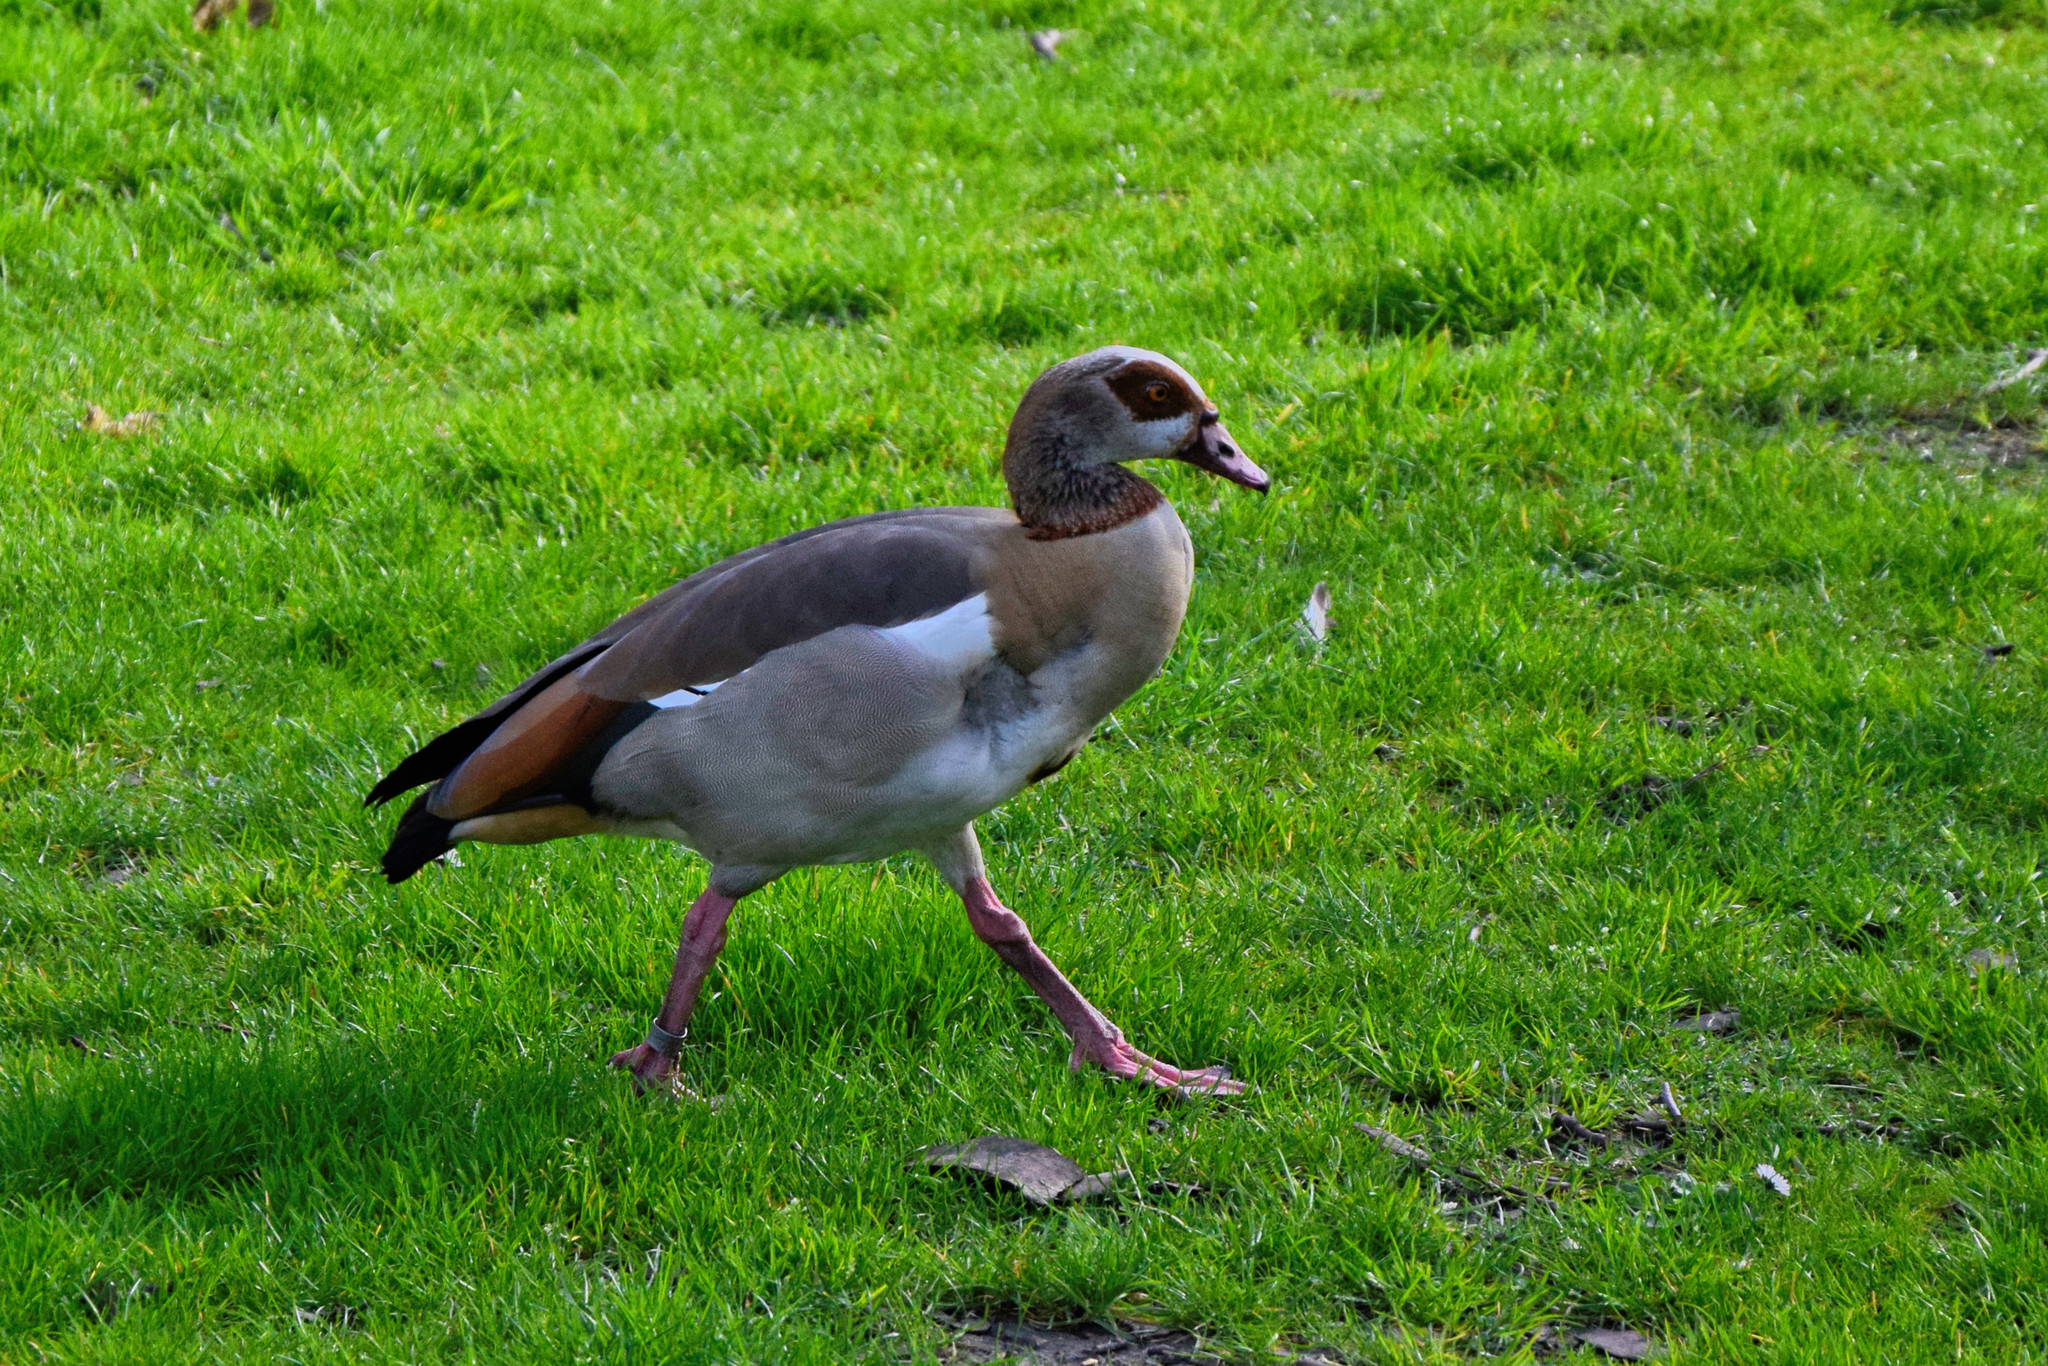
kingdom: Animalia
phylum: Chordata
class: Aves
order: Anseriformes
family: Anatidae
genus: Alopochen
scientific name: Alopochen aegyptiaca
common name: Egyptian goose
